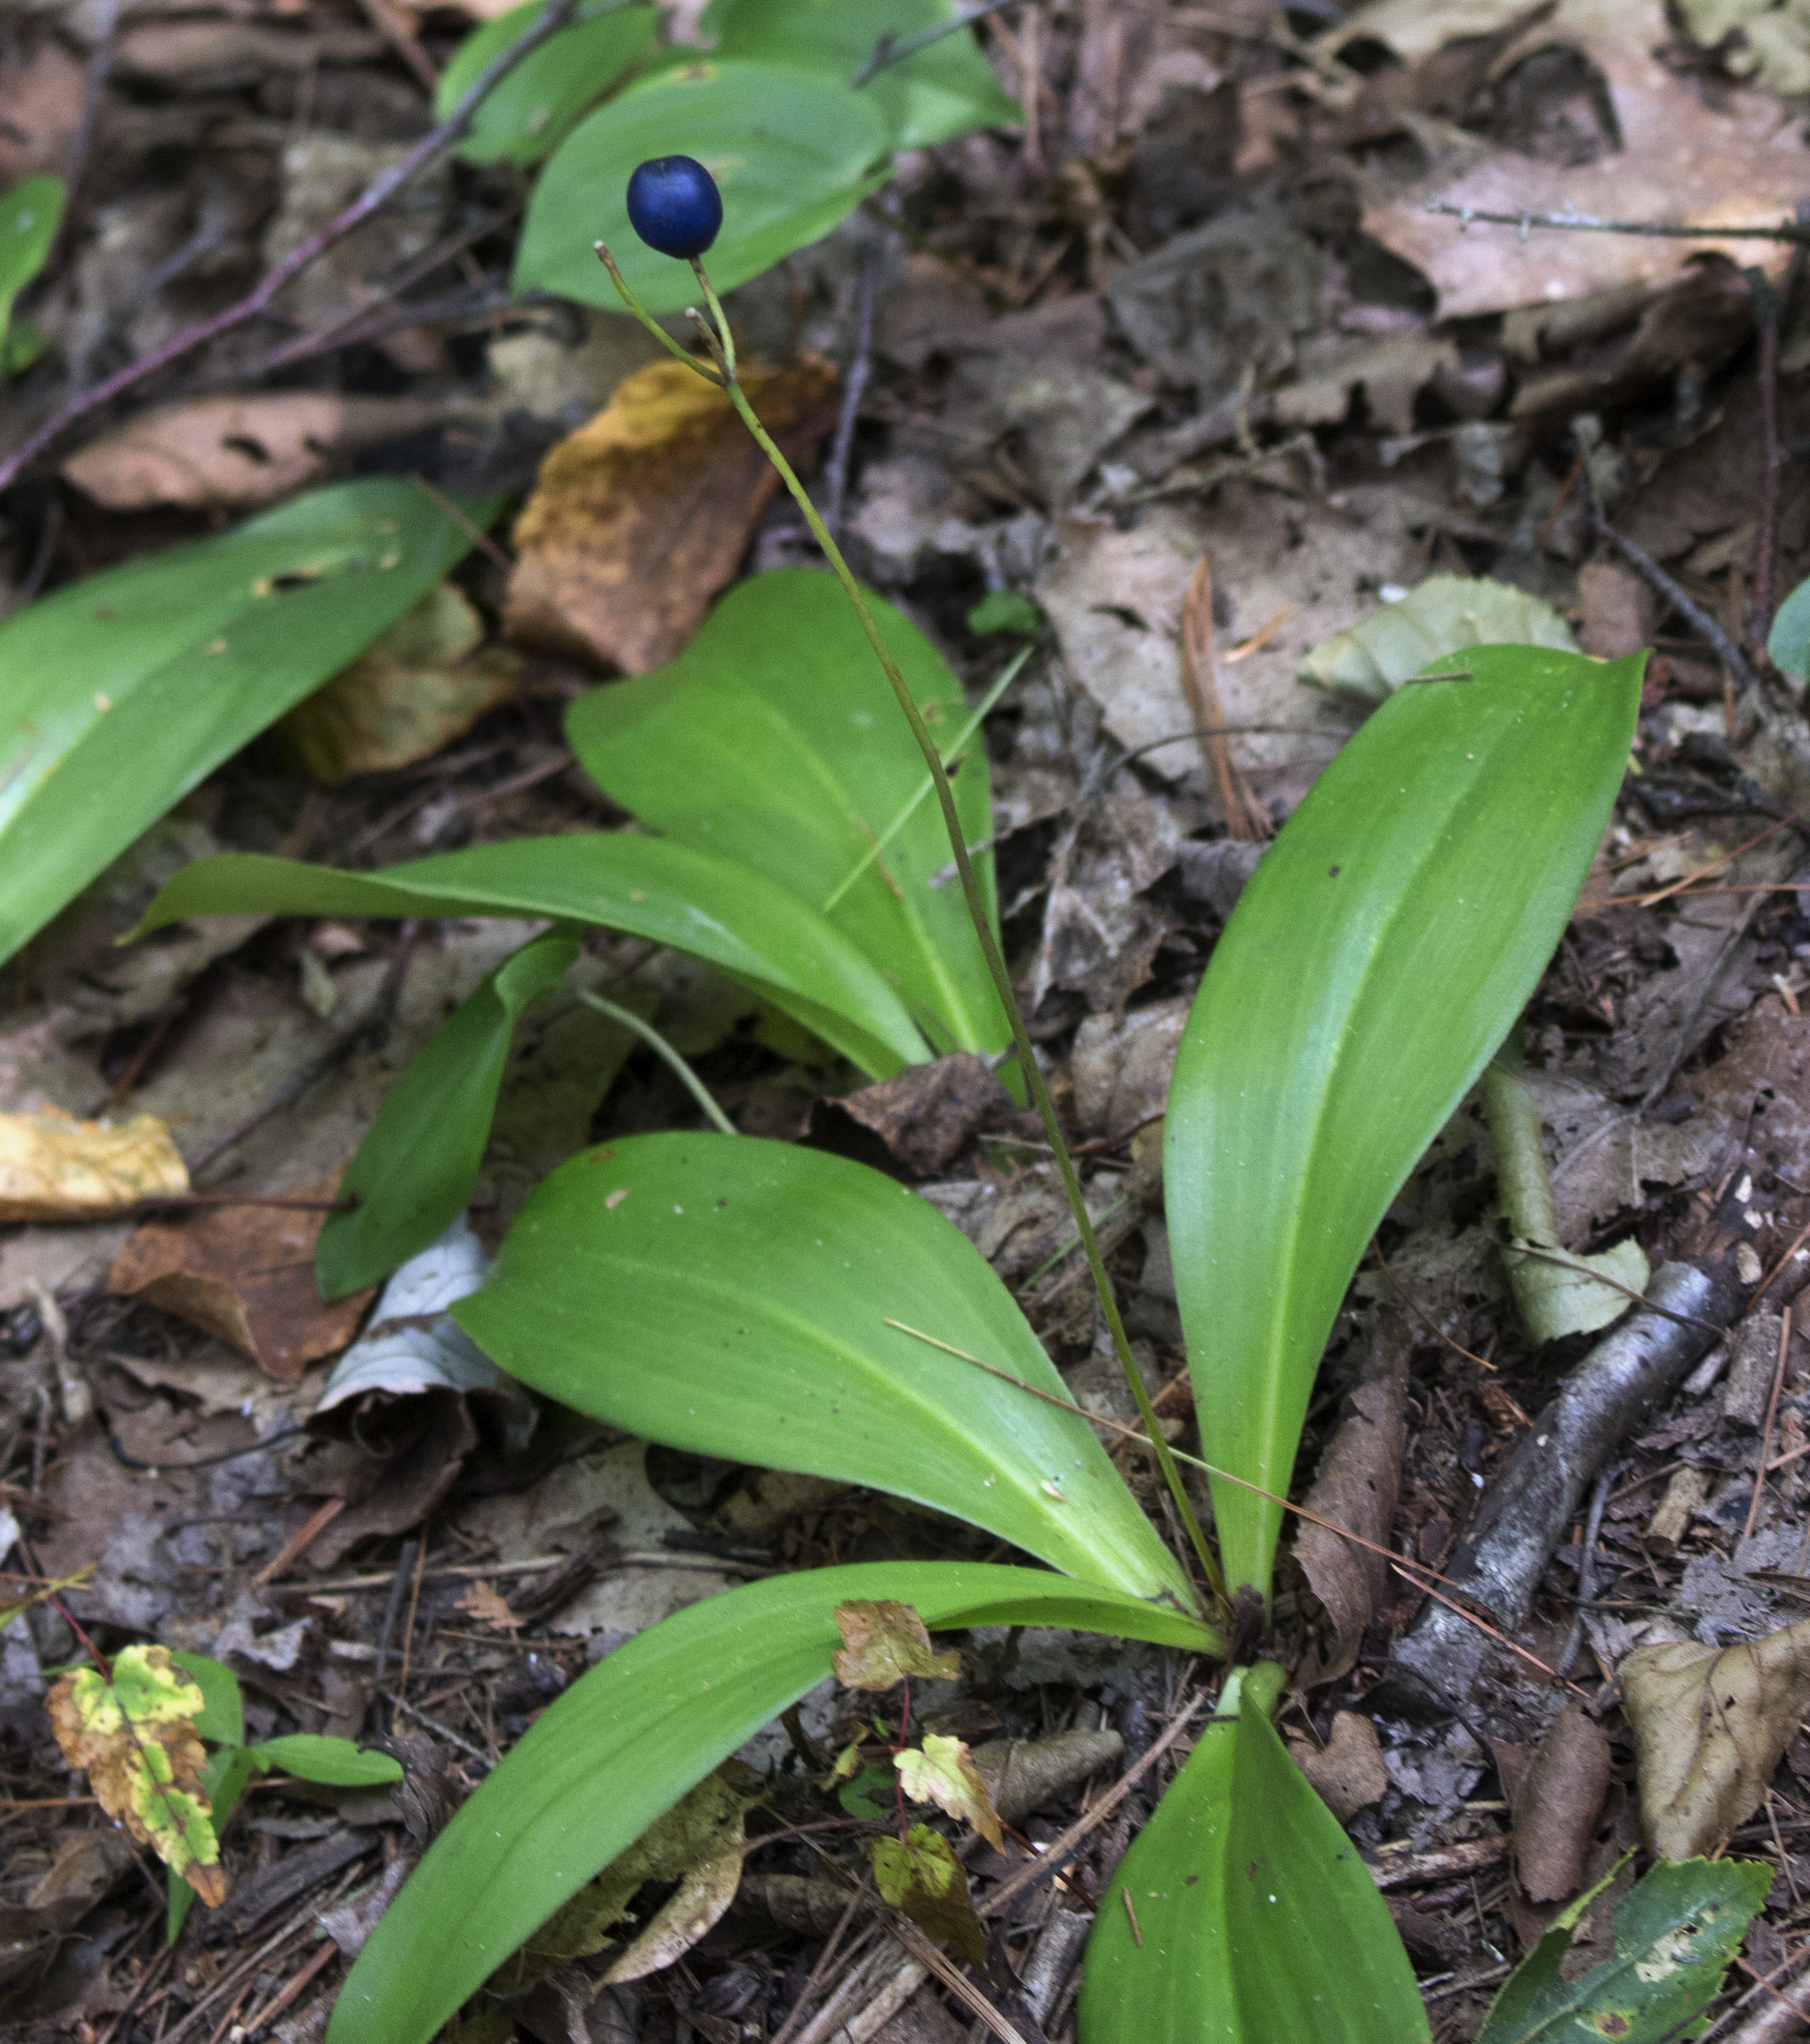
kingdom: Plantae
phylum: Tracheophyta
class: Liliopsida
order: Liliales
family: Liliaceae
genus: Clintonia
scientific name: Clintonia borealis
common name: Yellow clintonia
